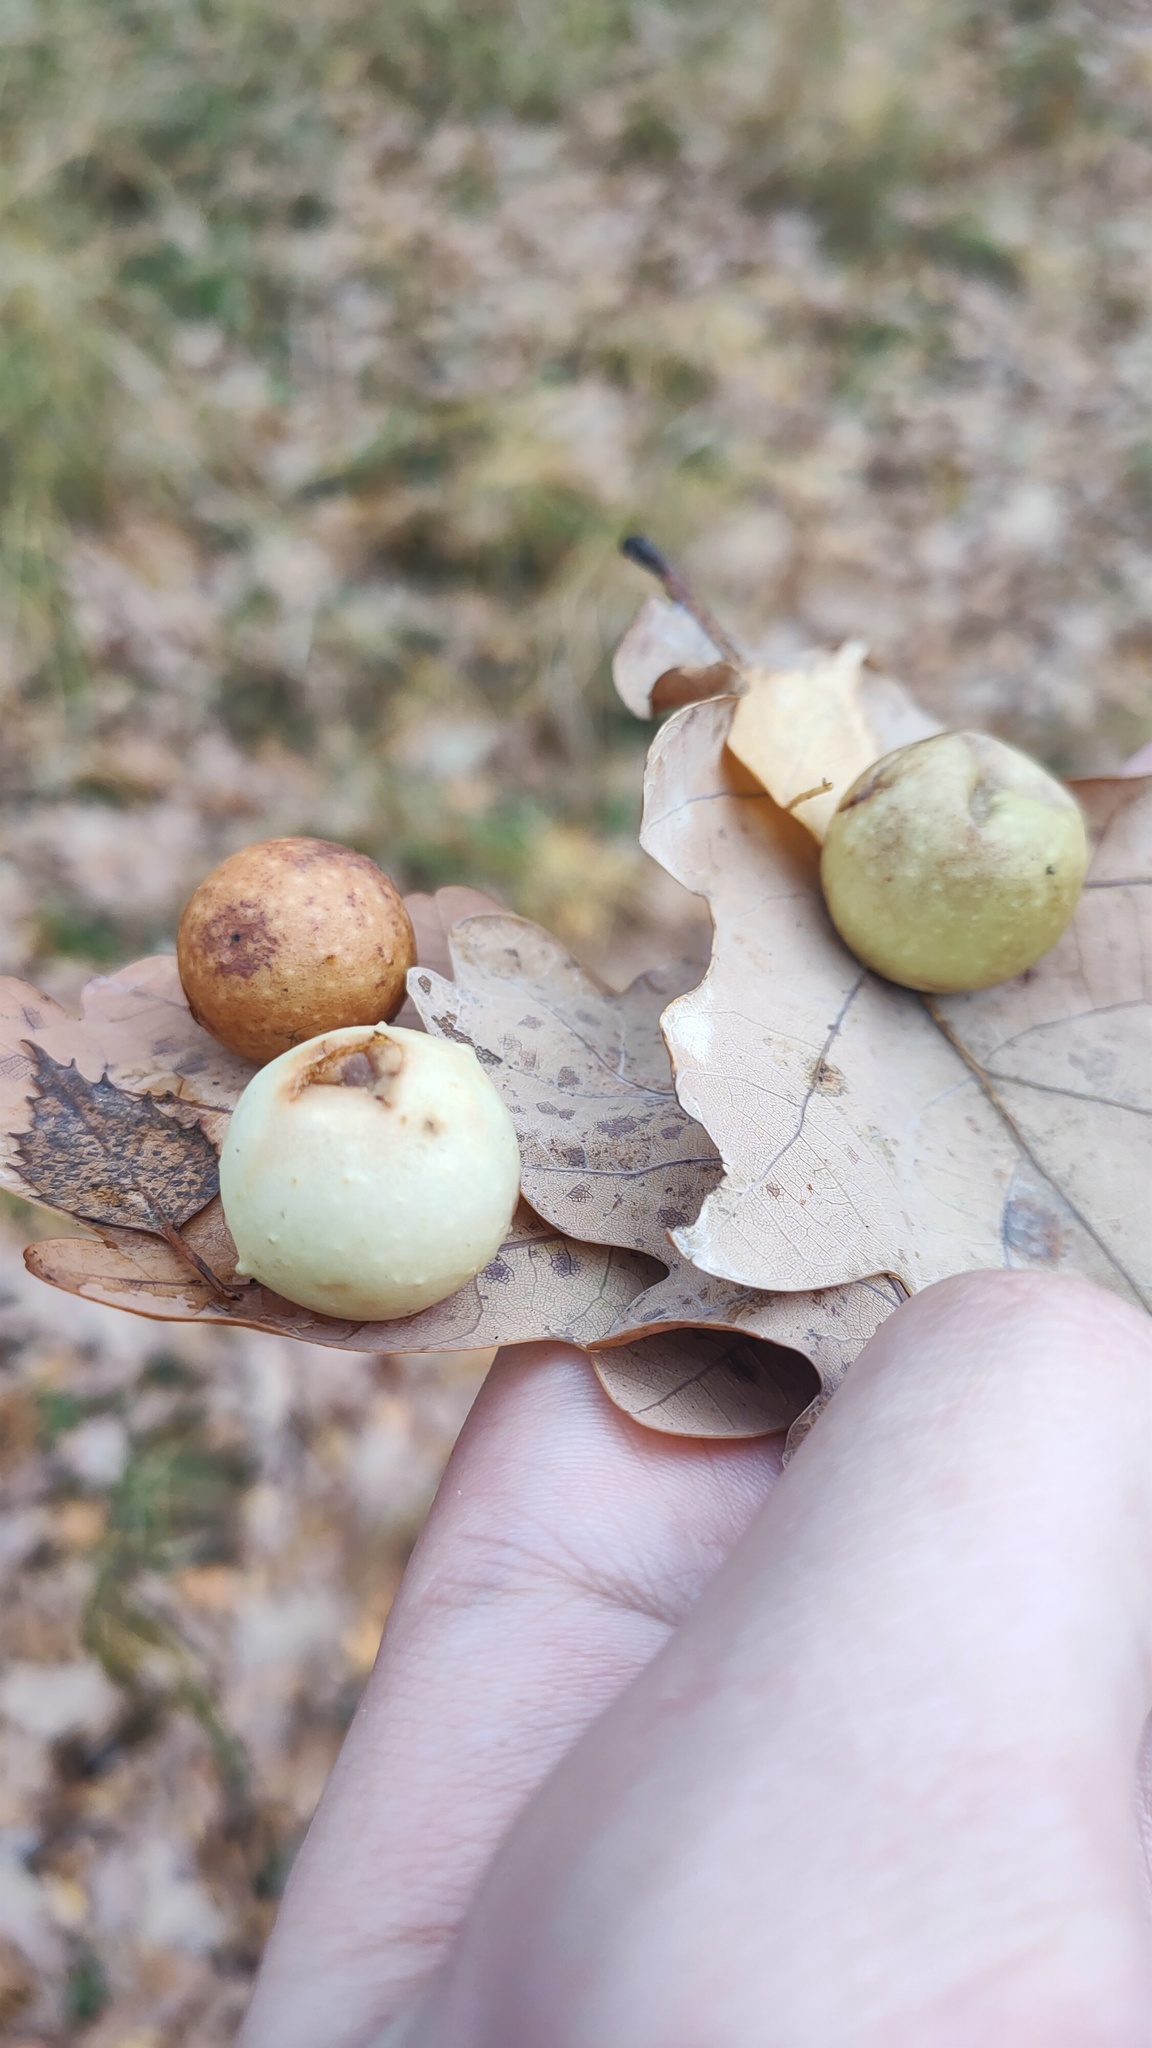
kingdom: Animalia
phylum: Arthropoda
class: Insecta
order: Hymenoptera
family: Cynipidae
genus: Cynips
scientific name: Cynips quercusfolii
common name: Cherry gall
